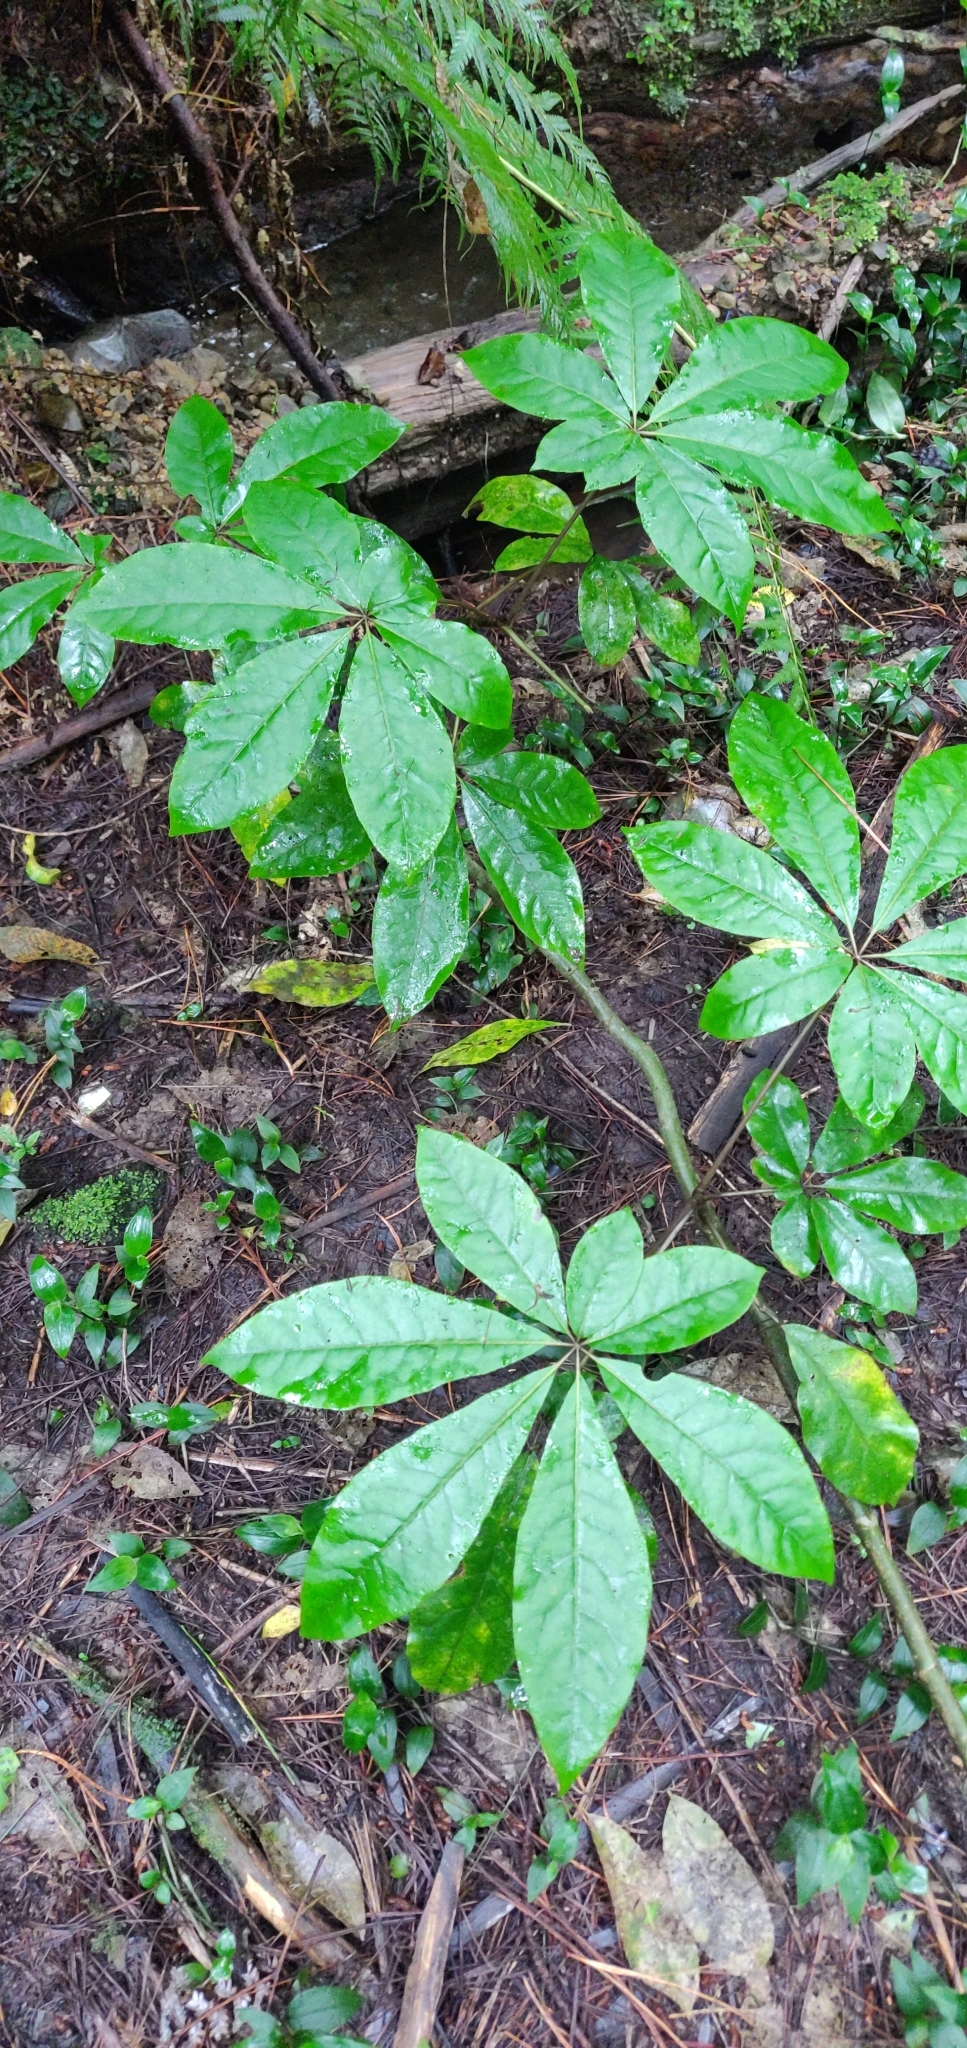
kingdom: Plantae
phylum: Tracheophyta
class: Magnoliopsida
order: Apiales
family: Araliaceae
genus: Schefflera
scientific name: Schefflera digitata
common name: Pate
